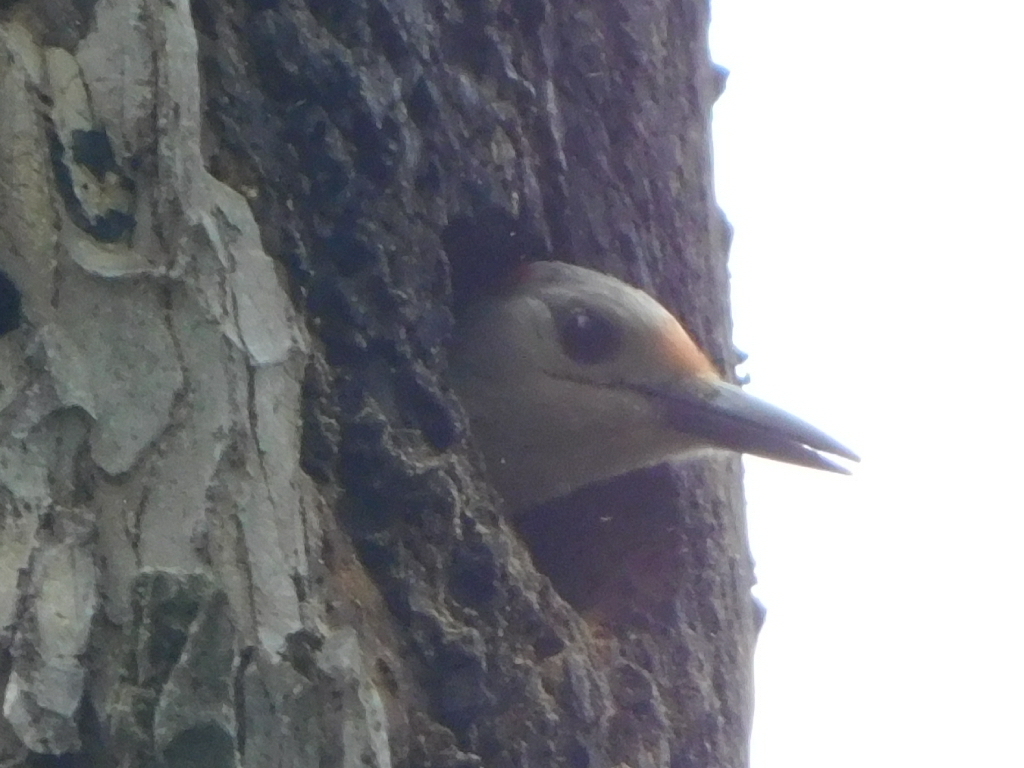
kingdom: Animalia
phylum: Chordata
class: Aves
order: Piciformes
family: Picidae
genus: Melanerpes
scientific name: Melanerpes carolinus
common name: Red-bellied woodpecker
